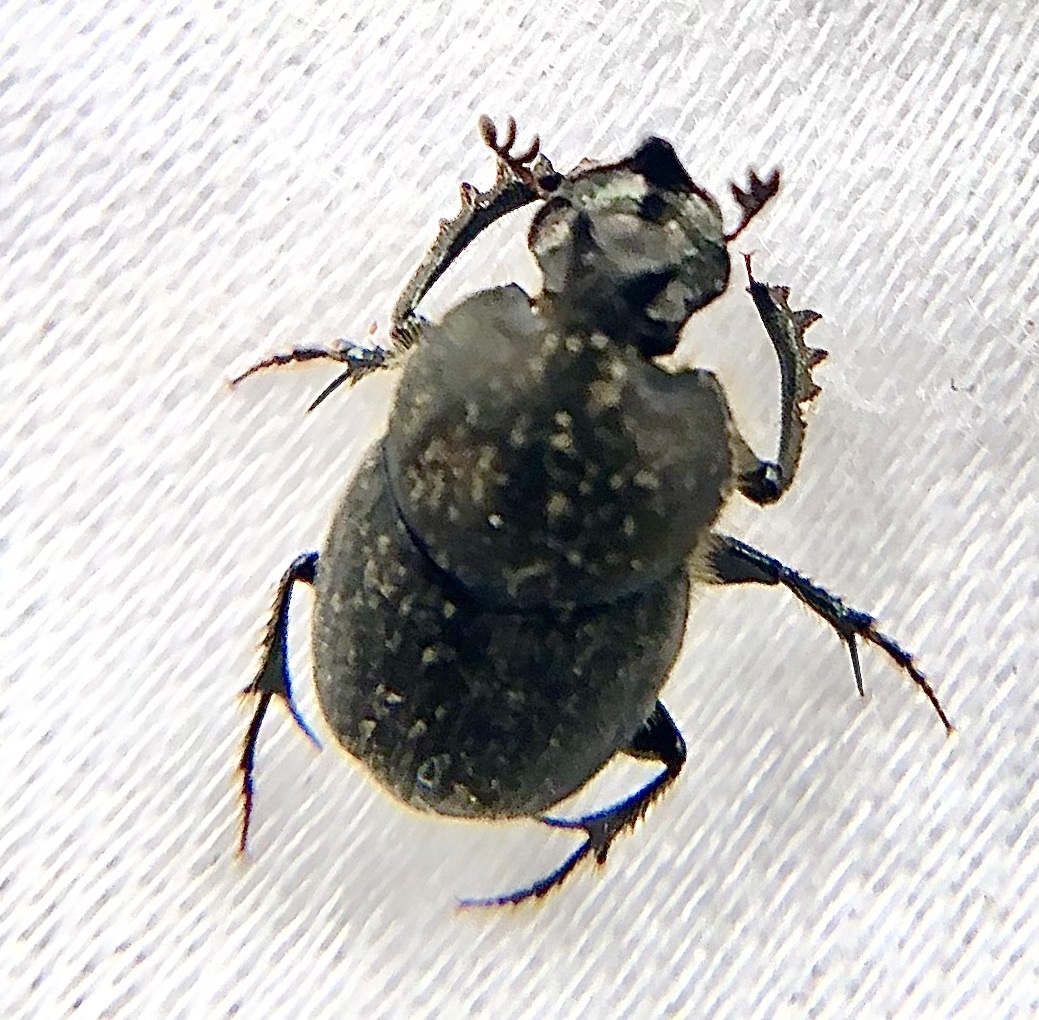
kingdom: Animalia
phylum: Arthropoda
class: Insecta
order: Coleoptera
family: Scarabaeidae
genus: Onthophagus
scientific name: Onthophagus hecate
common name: Scooped scarab
